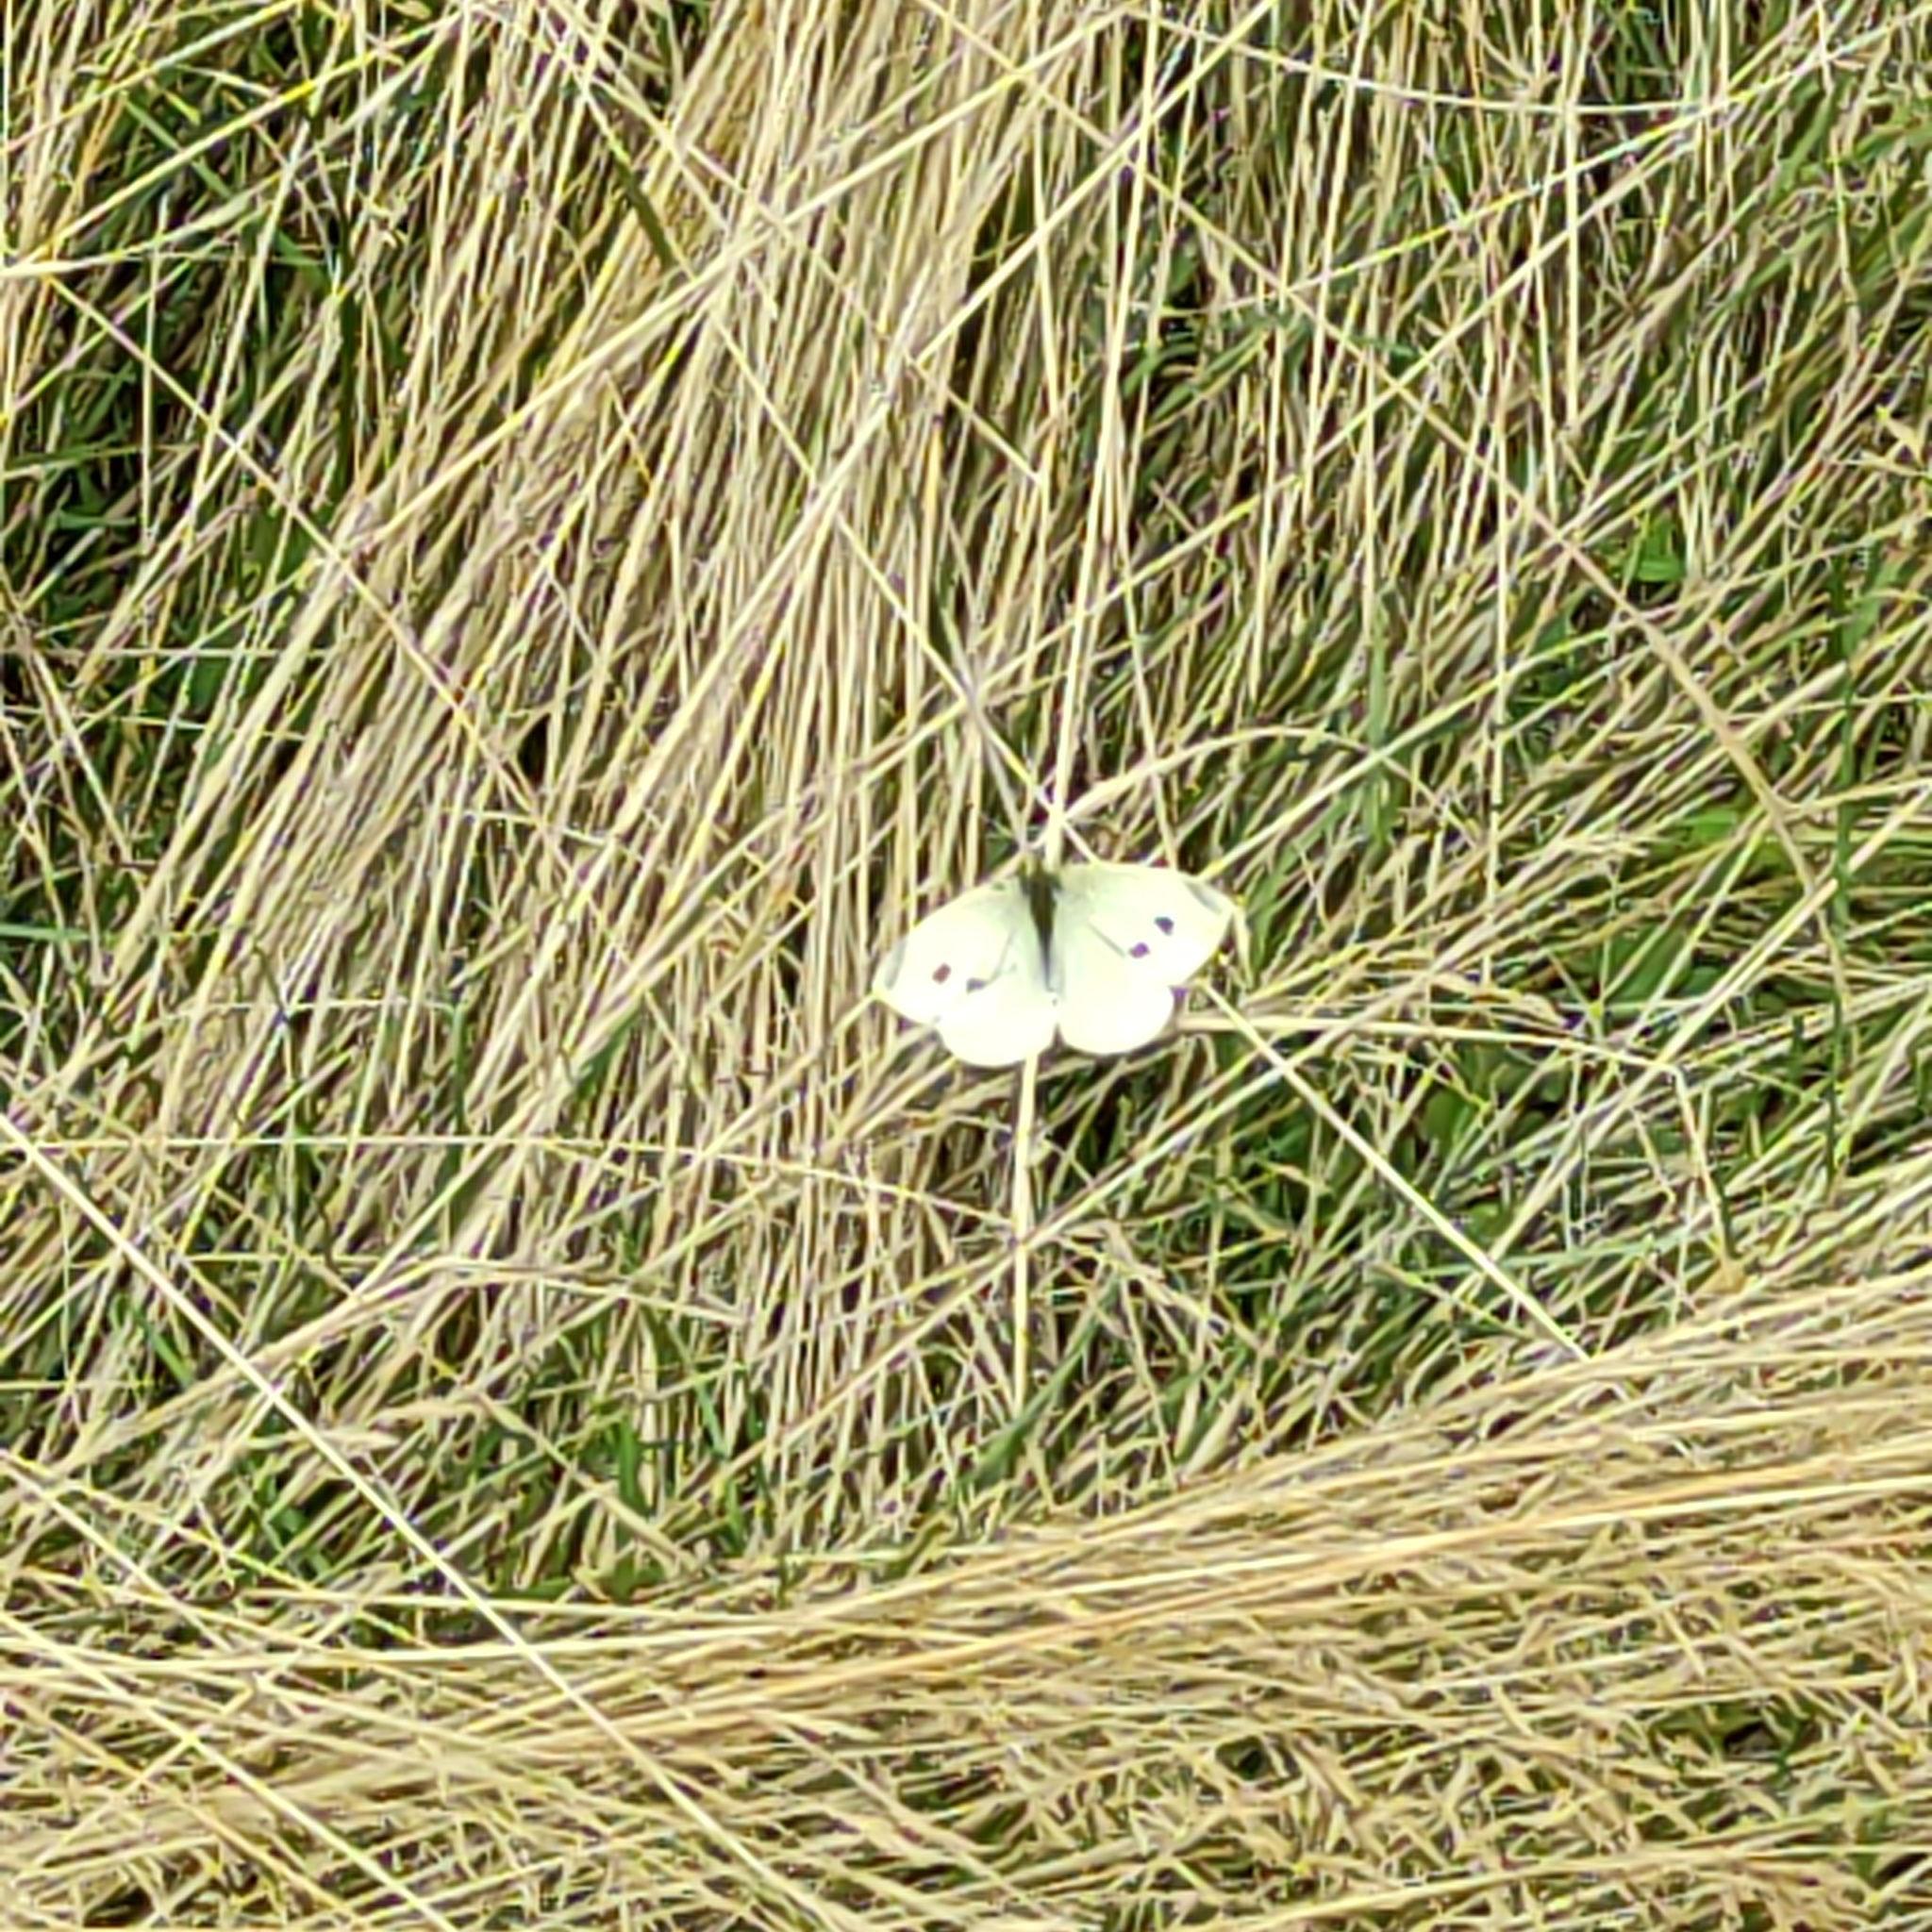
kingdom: Animalia
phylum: Arthropoda
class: Insecta
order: Lepidoptera
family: Pieridae
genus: Pieris
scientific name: Pieris rapae
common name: Small white
